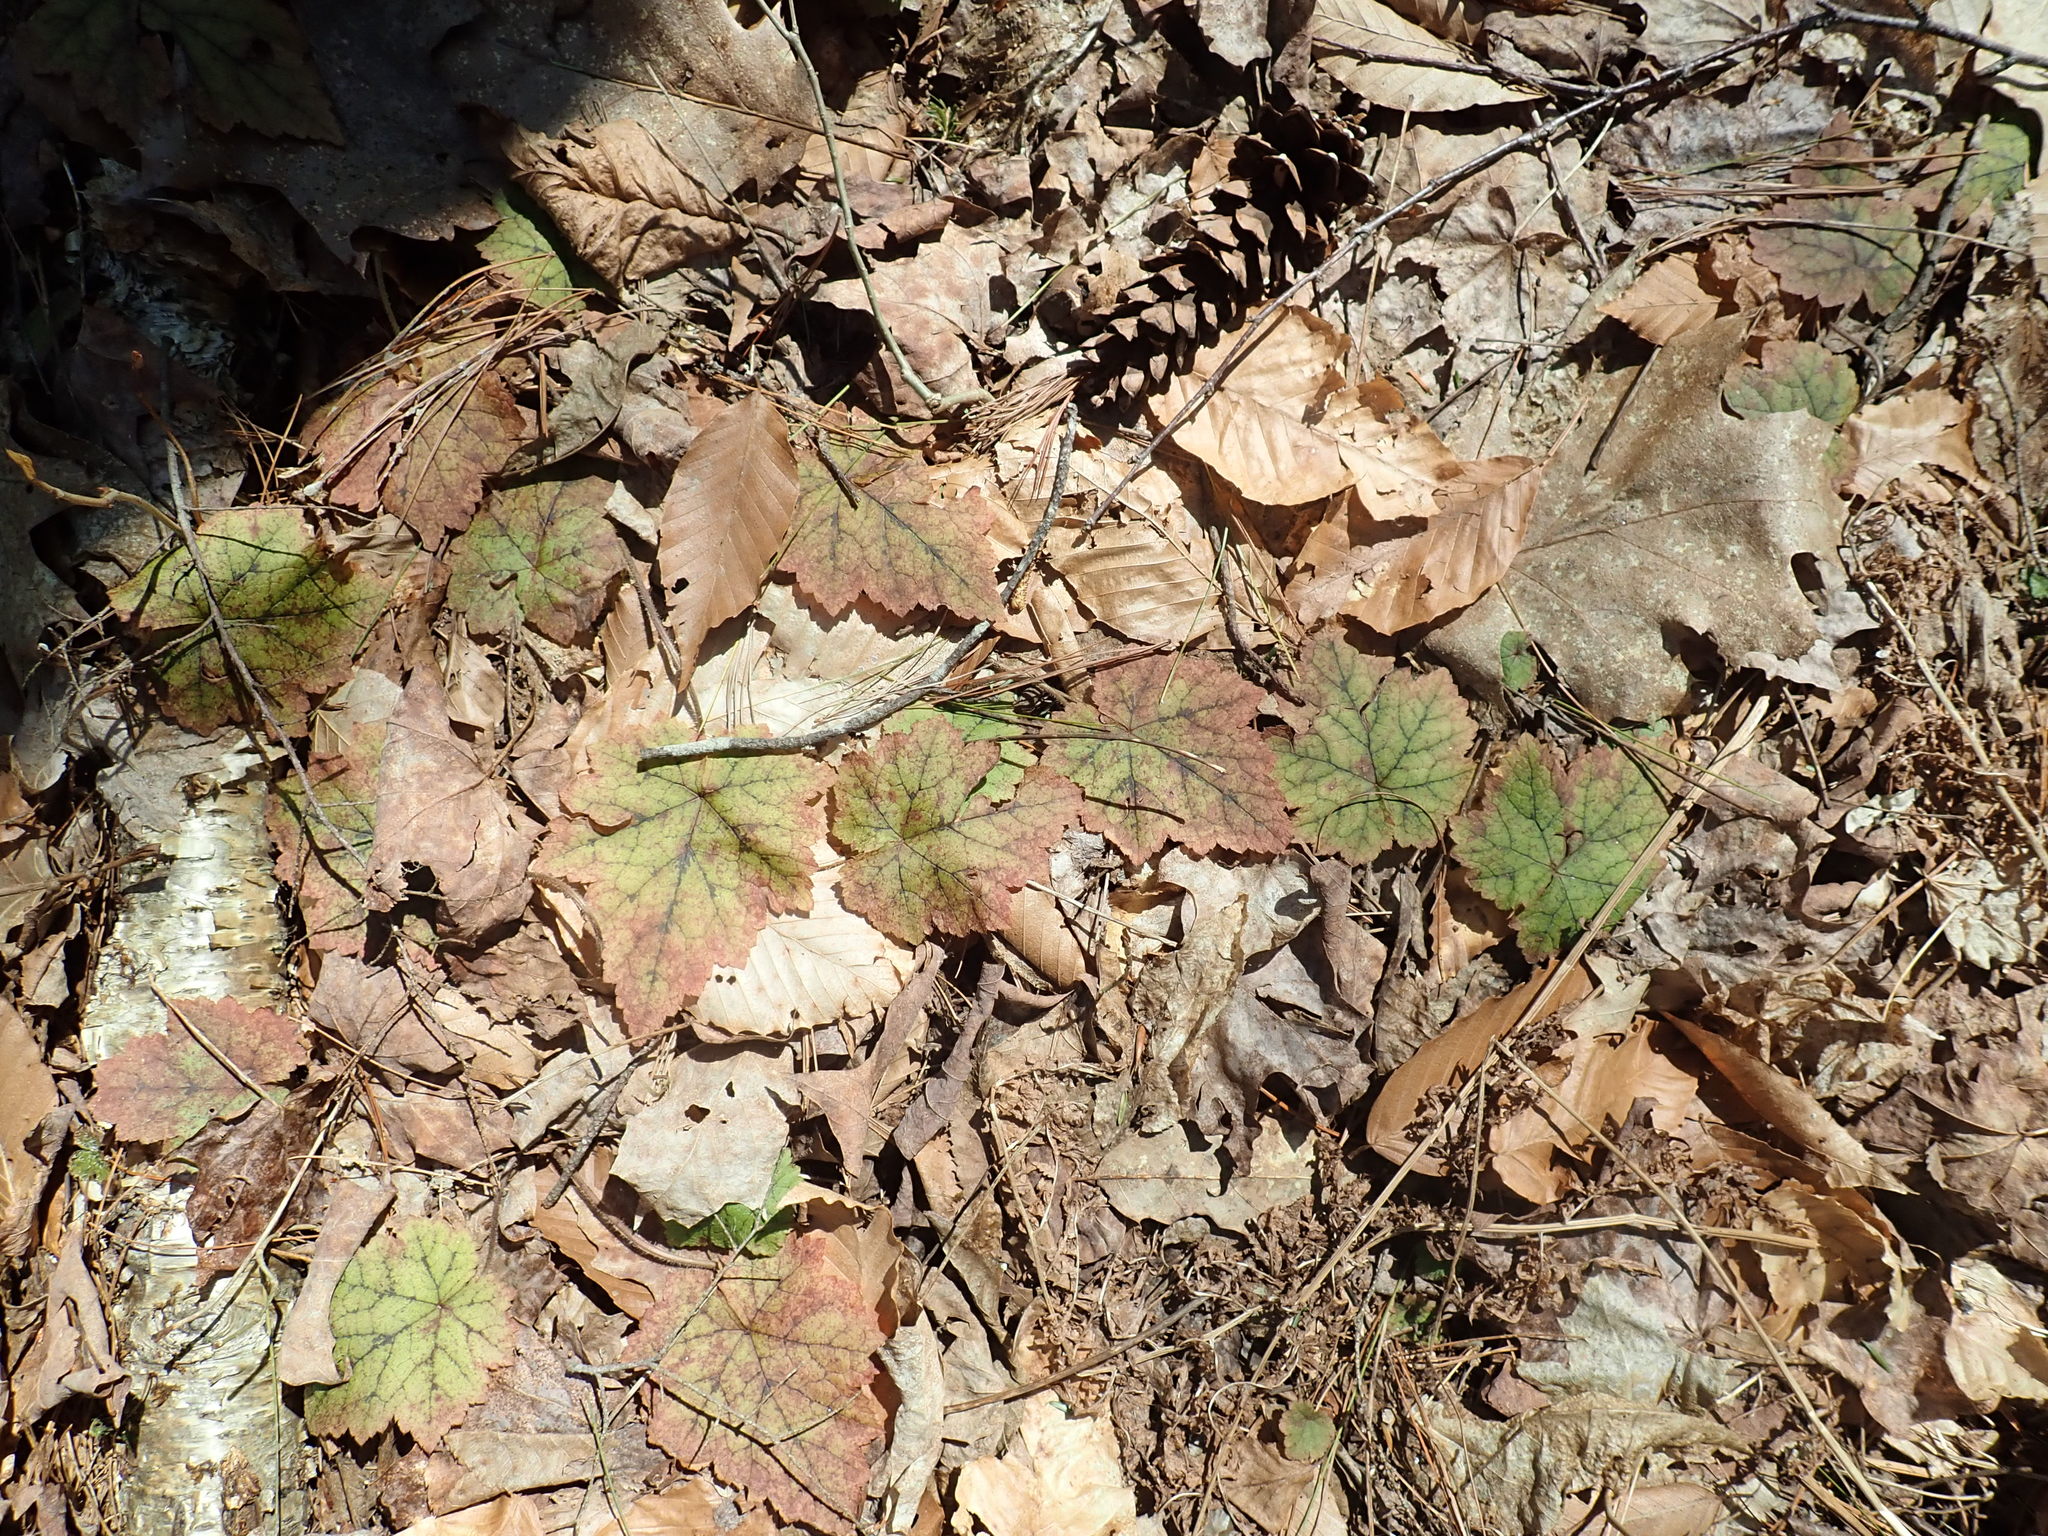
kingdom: Plantae
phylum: Tracheophyta
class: Magnoliopsida
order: Saxifragales
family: Saxifragaceae
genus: Tiarella
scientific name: Tiarella stolonifera
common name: Stoloniferous foamflower
